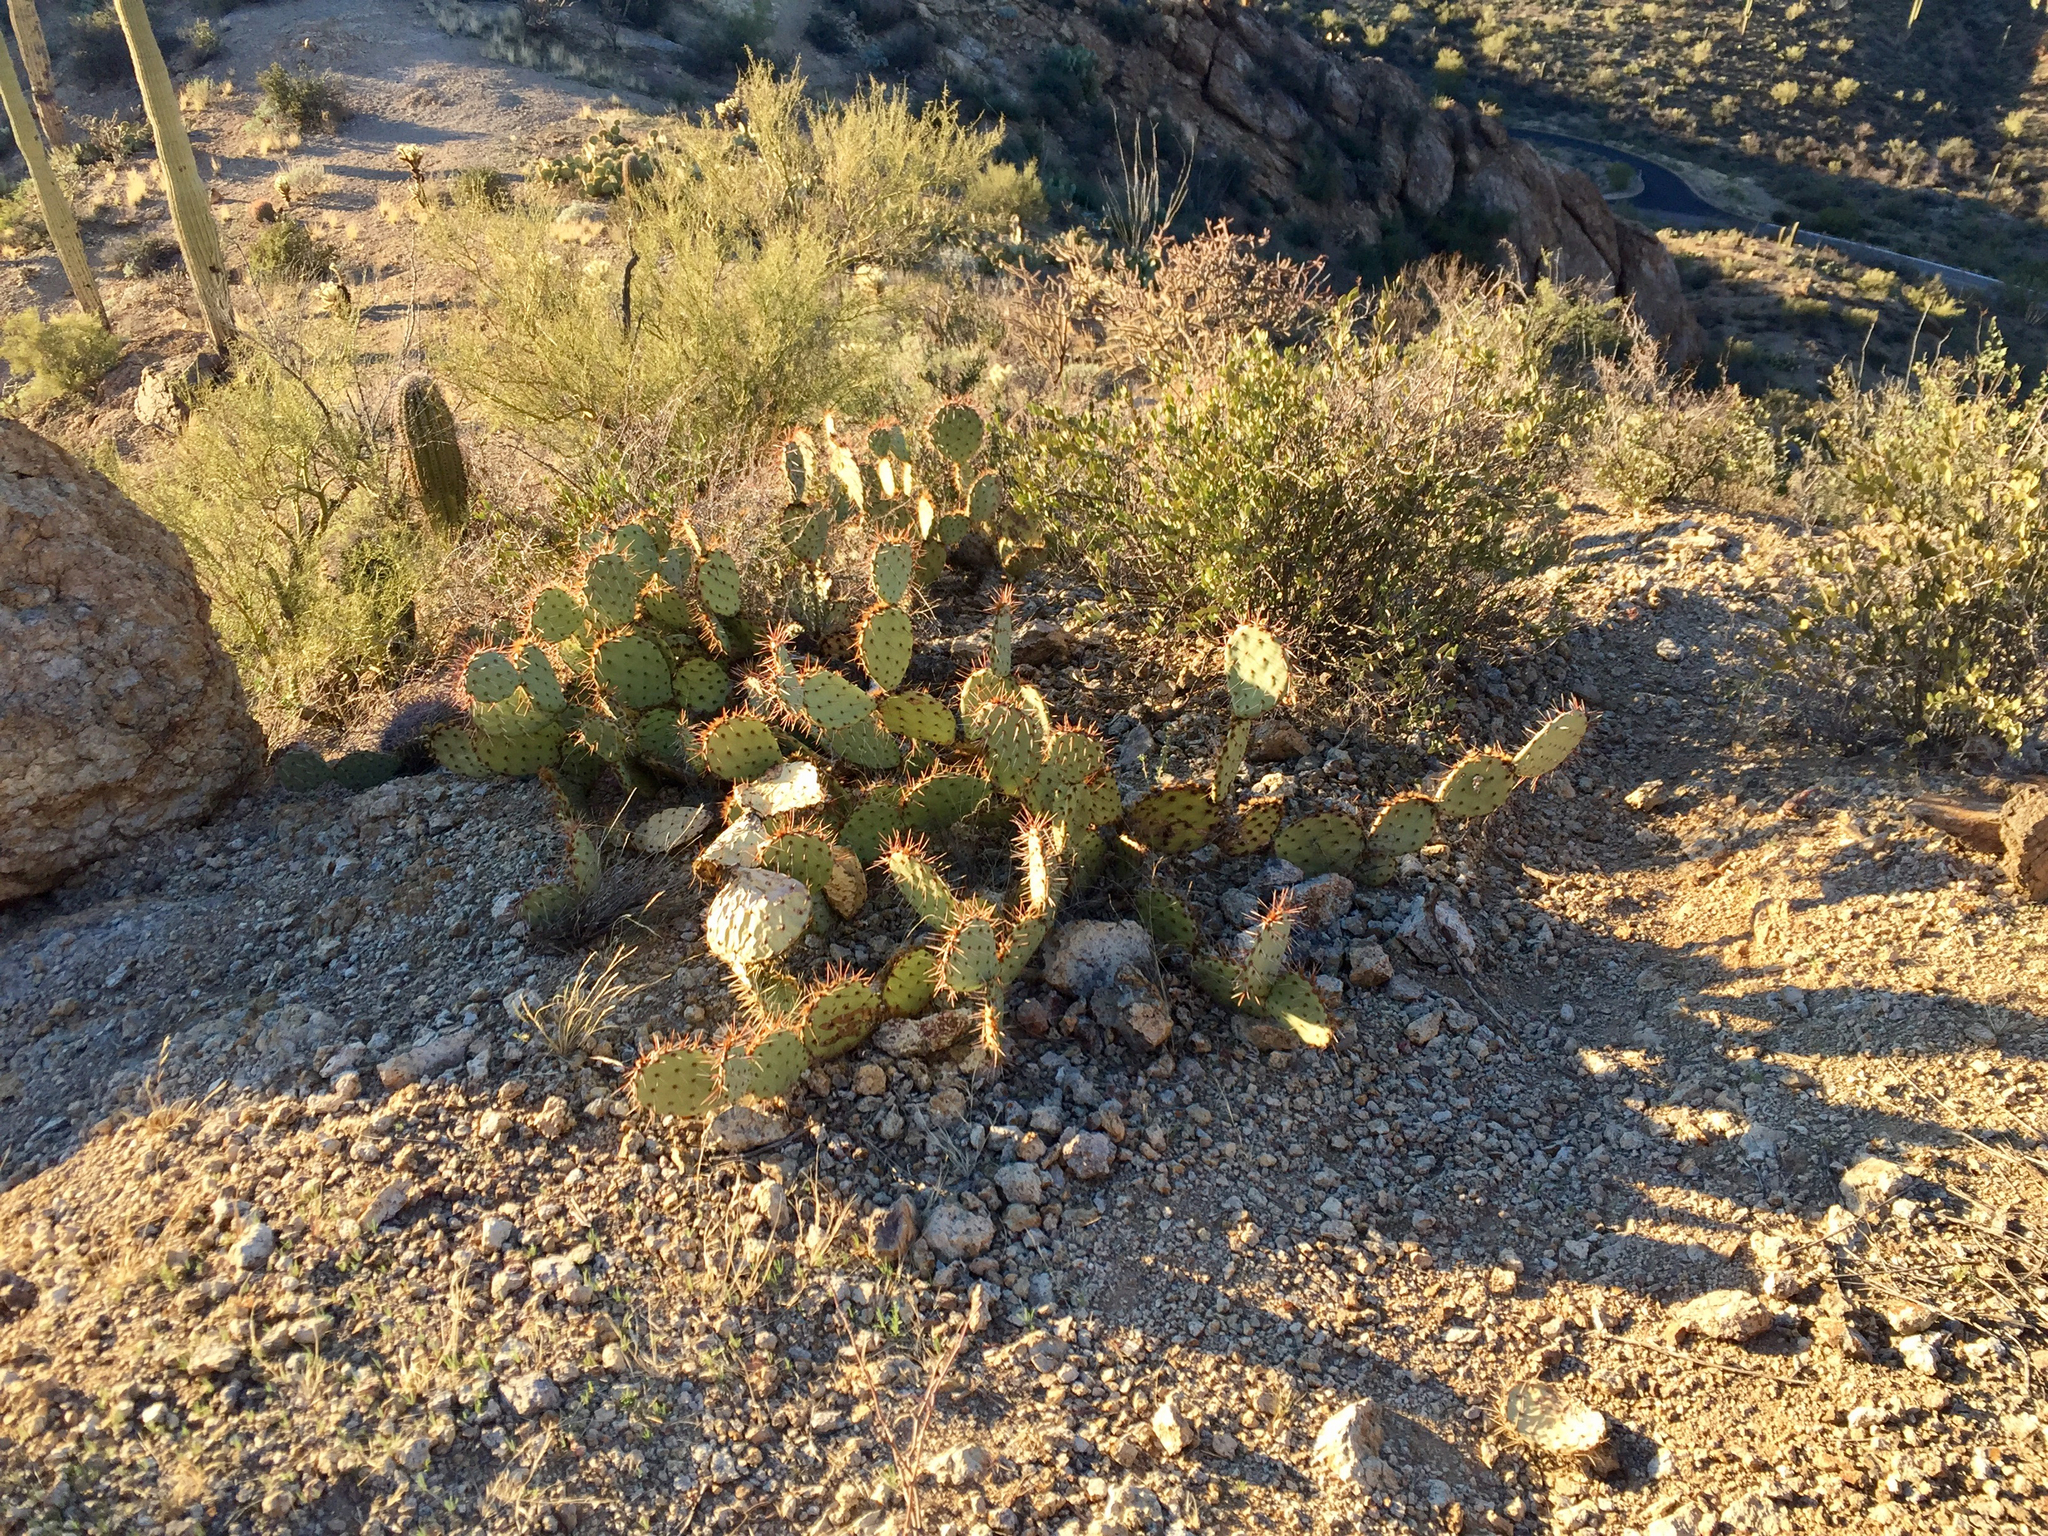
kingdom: Plantae
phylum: Tracheophyta
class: Magnoliopsida
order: Caryophyllales
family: Cactaceae
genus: Opuntia
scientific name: Opuntia phaeacantha
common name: New mexico prickly-pear
